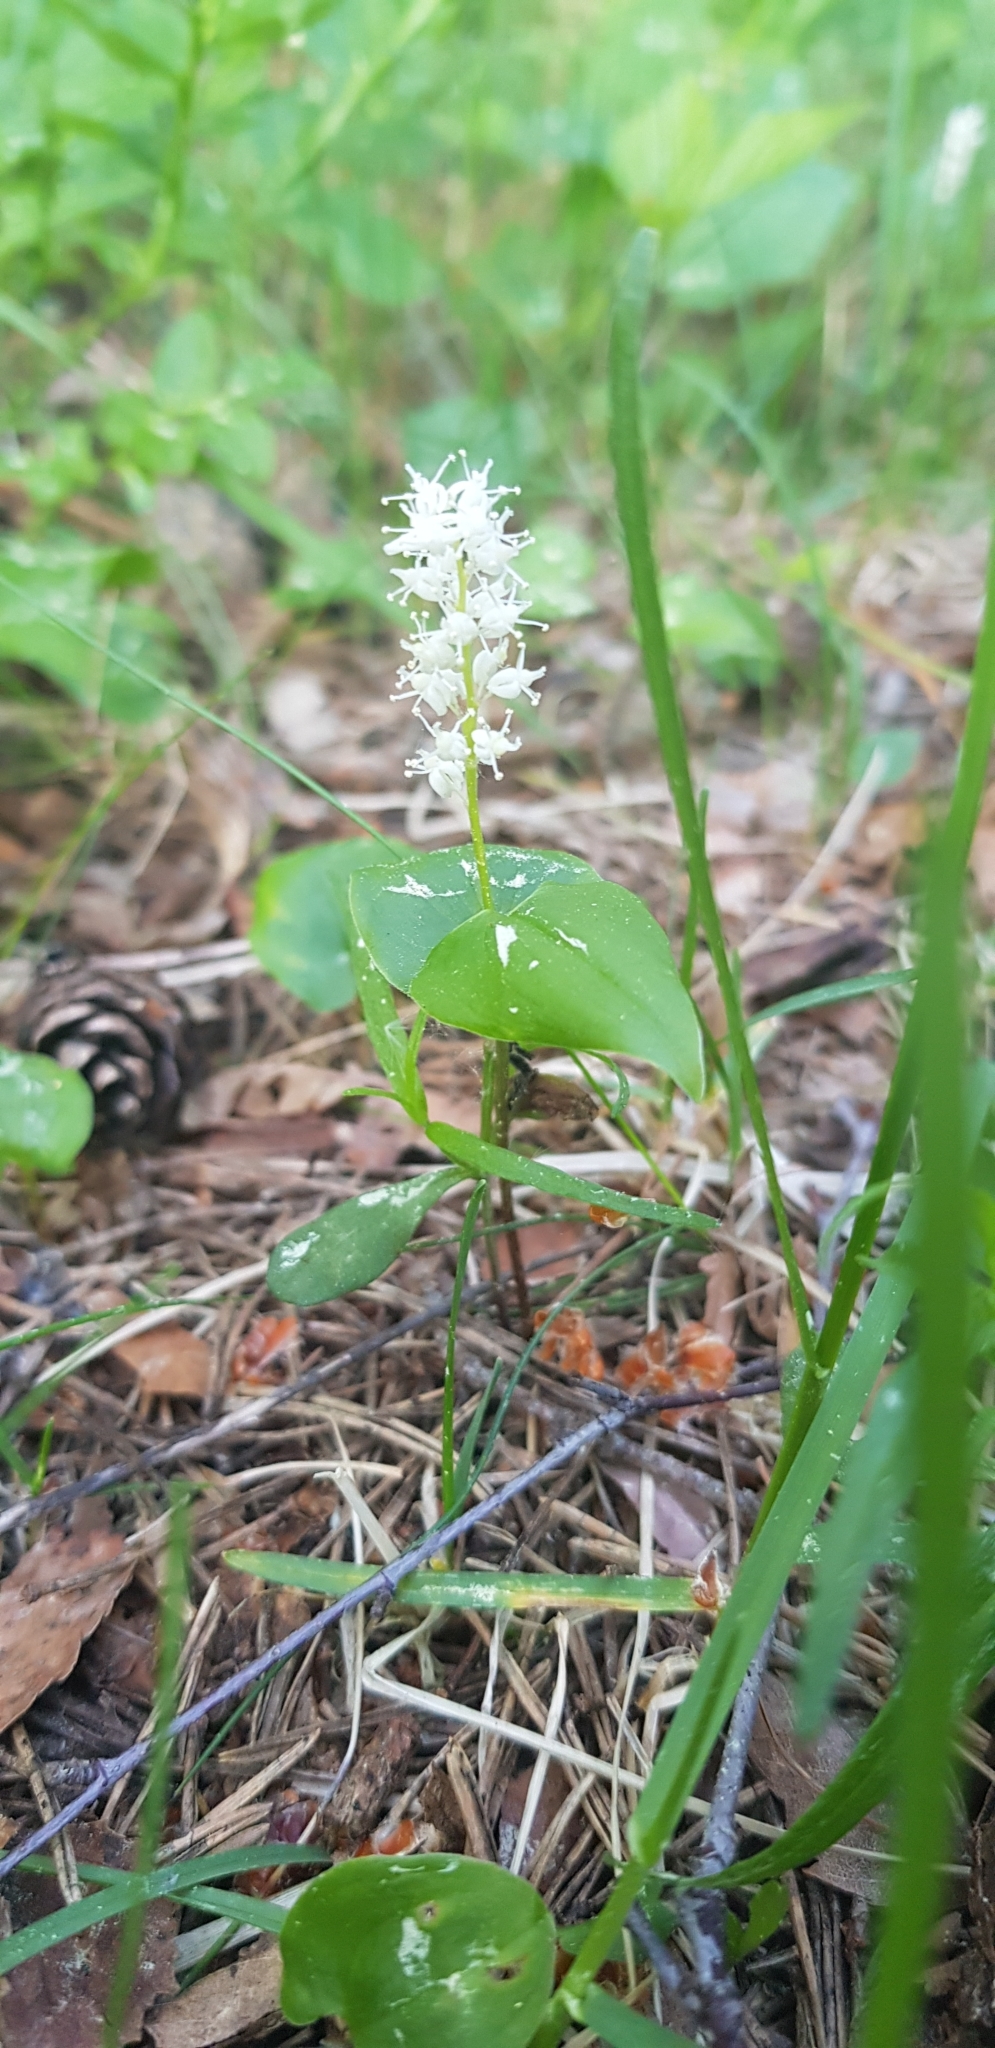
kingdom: Plantae
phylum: Tracheophyta
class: Liliopsida
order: Asparagales
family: Asparagaceae
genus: Maianthemum
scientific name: Maianthemum bifolium
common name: May lily
